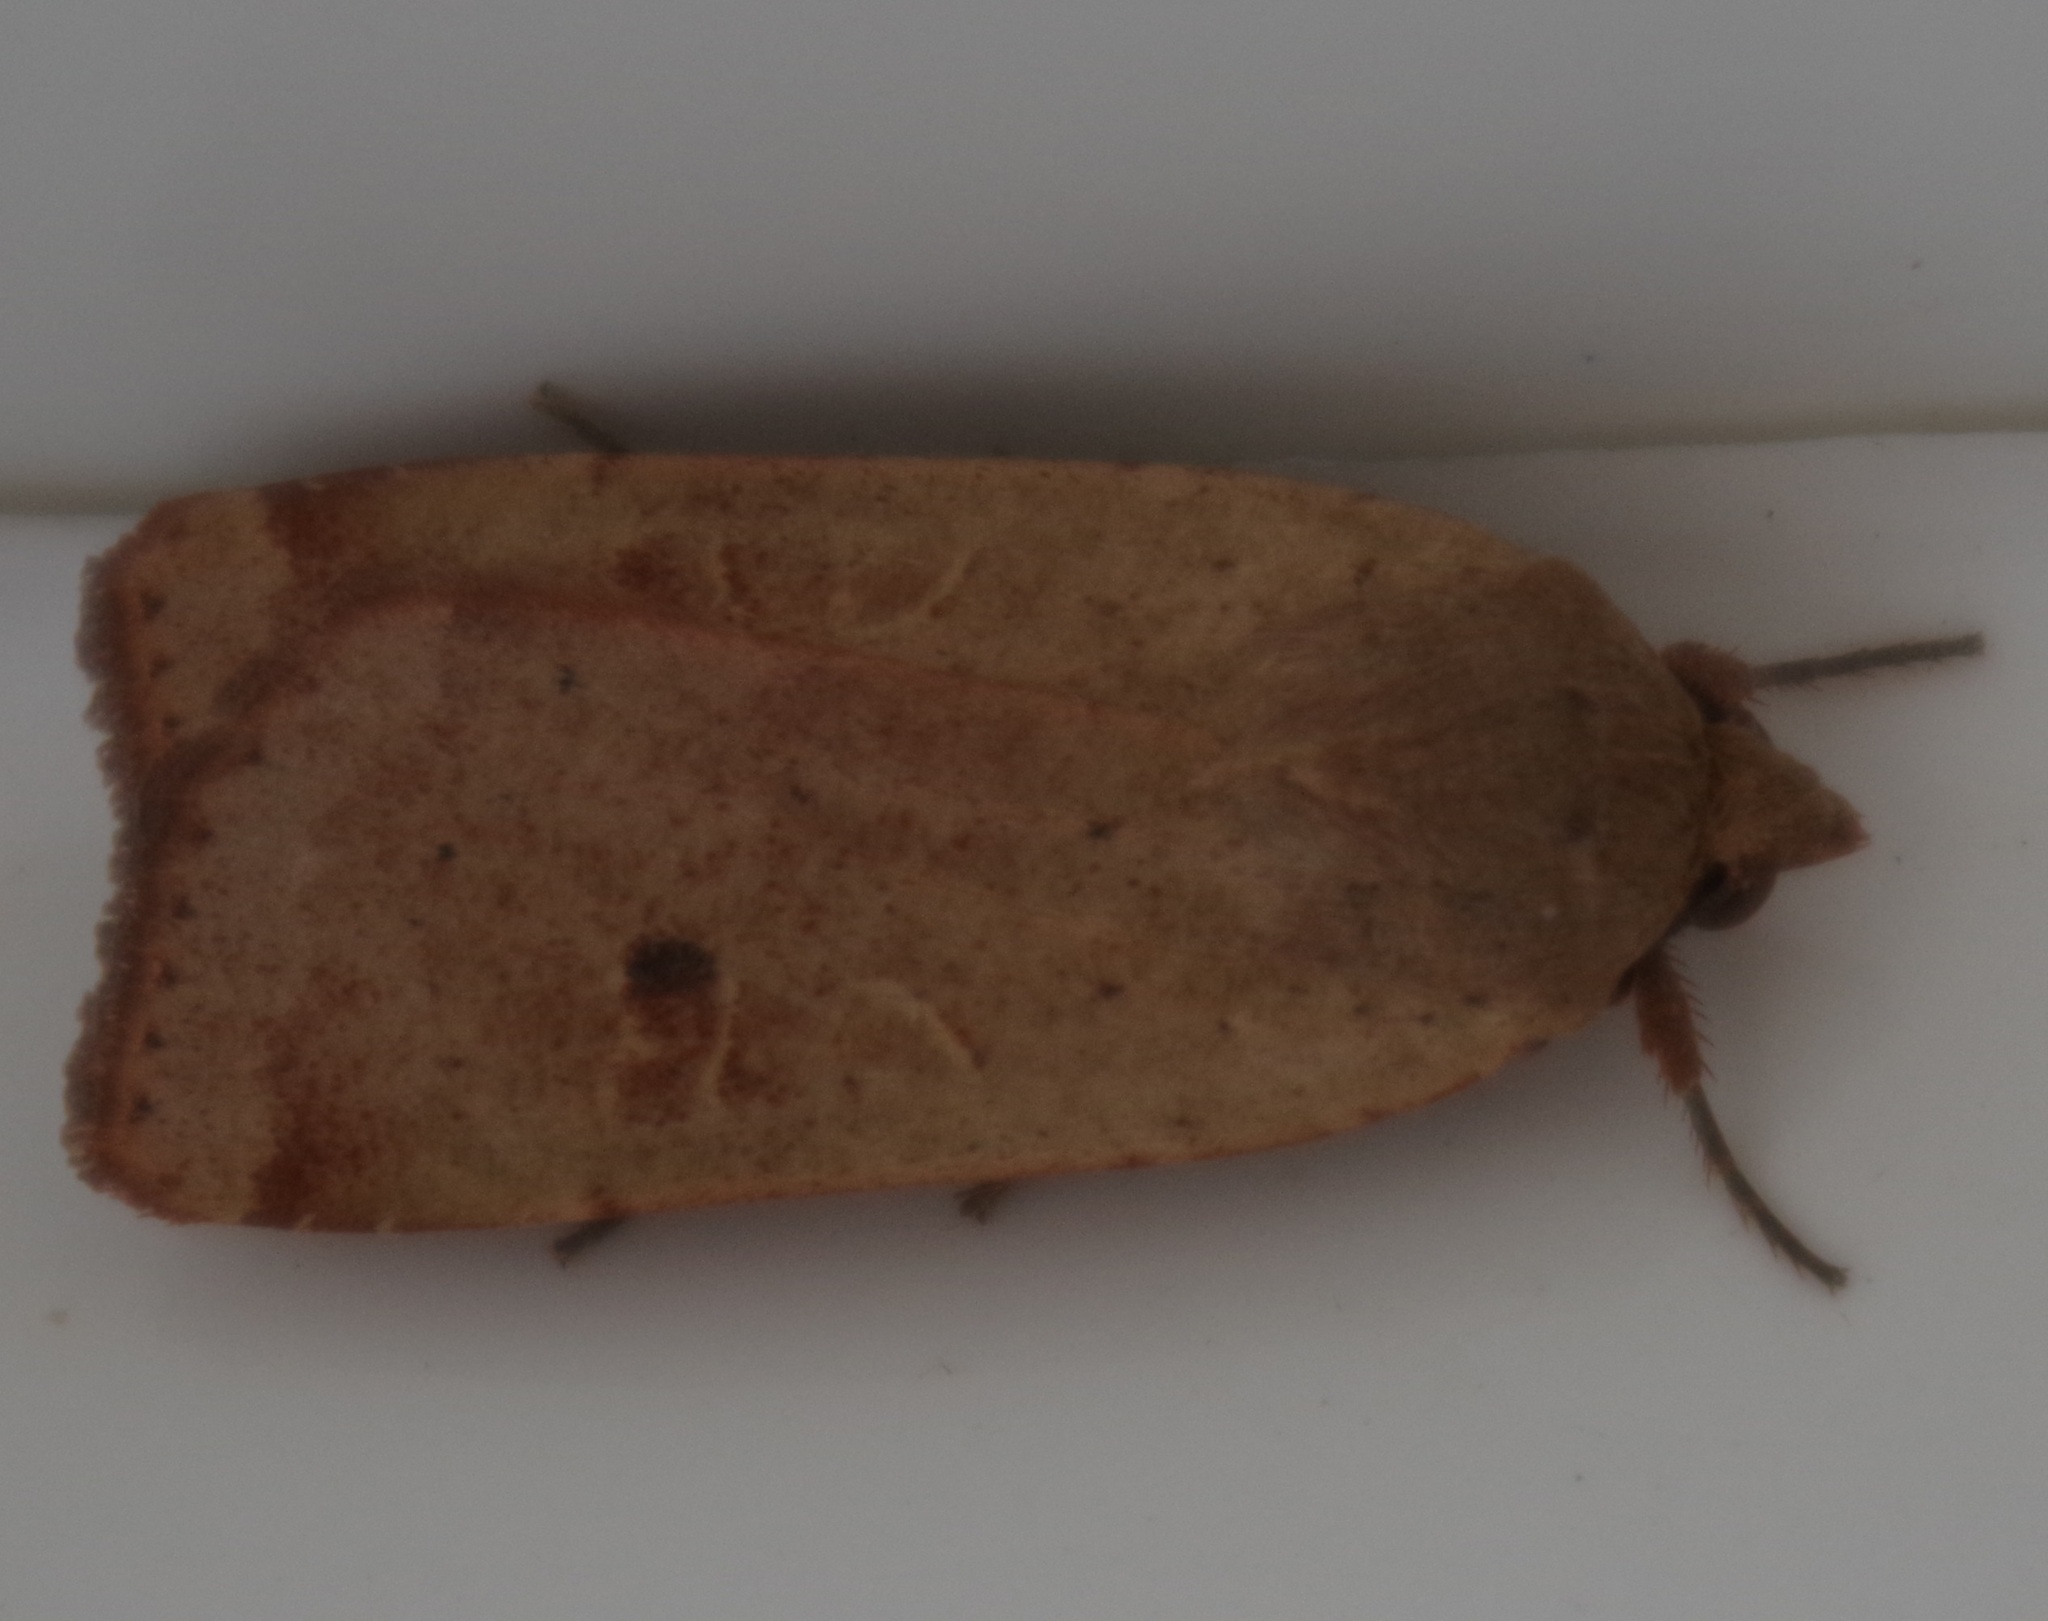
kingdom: Animalia
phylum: Arthropoda
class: Insecta
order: Lepidoptera
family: Noctuidae
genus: Noctua
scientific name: Noctua comes
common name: Lesser yellow underwing
